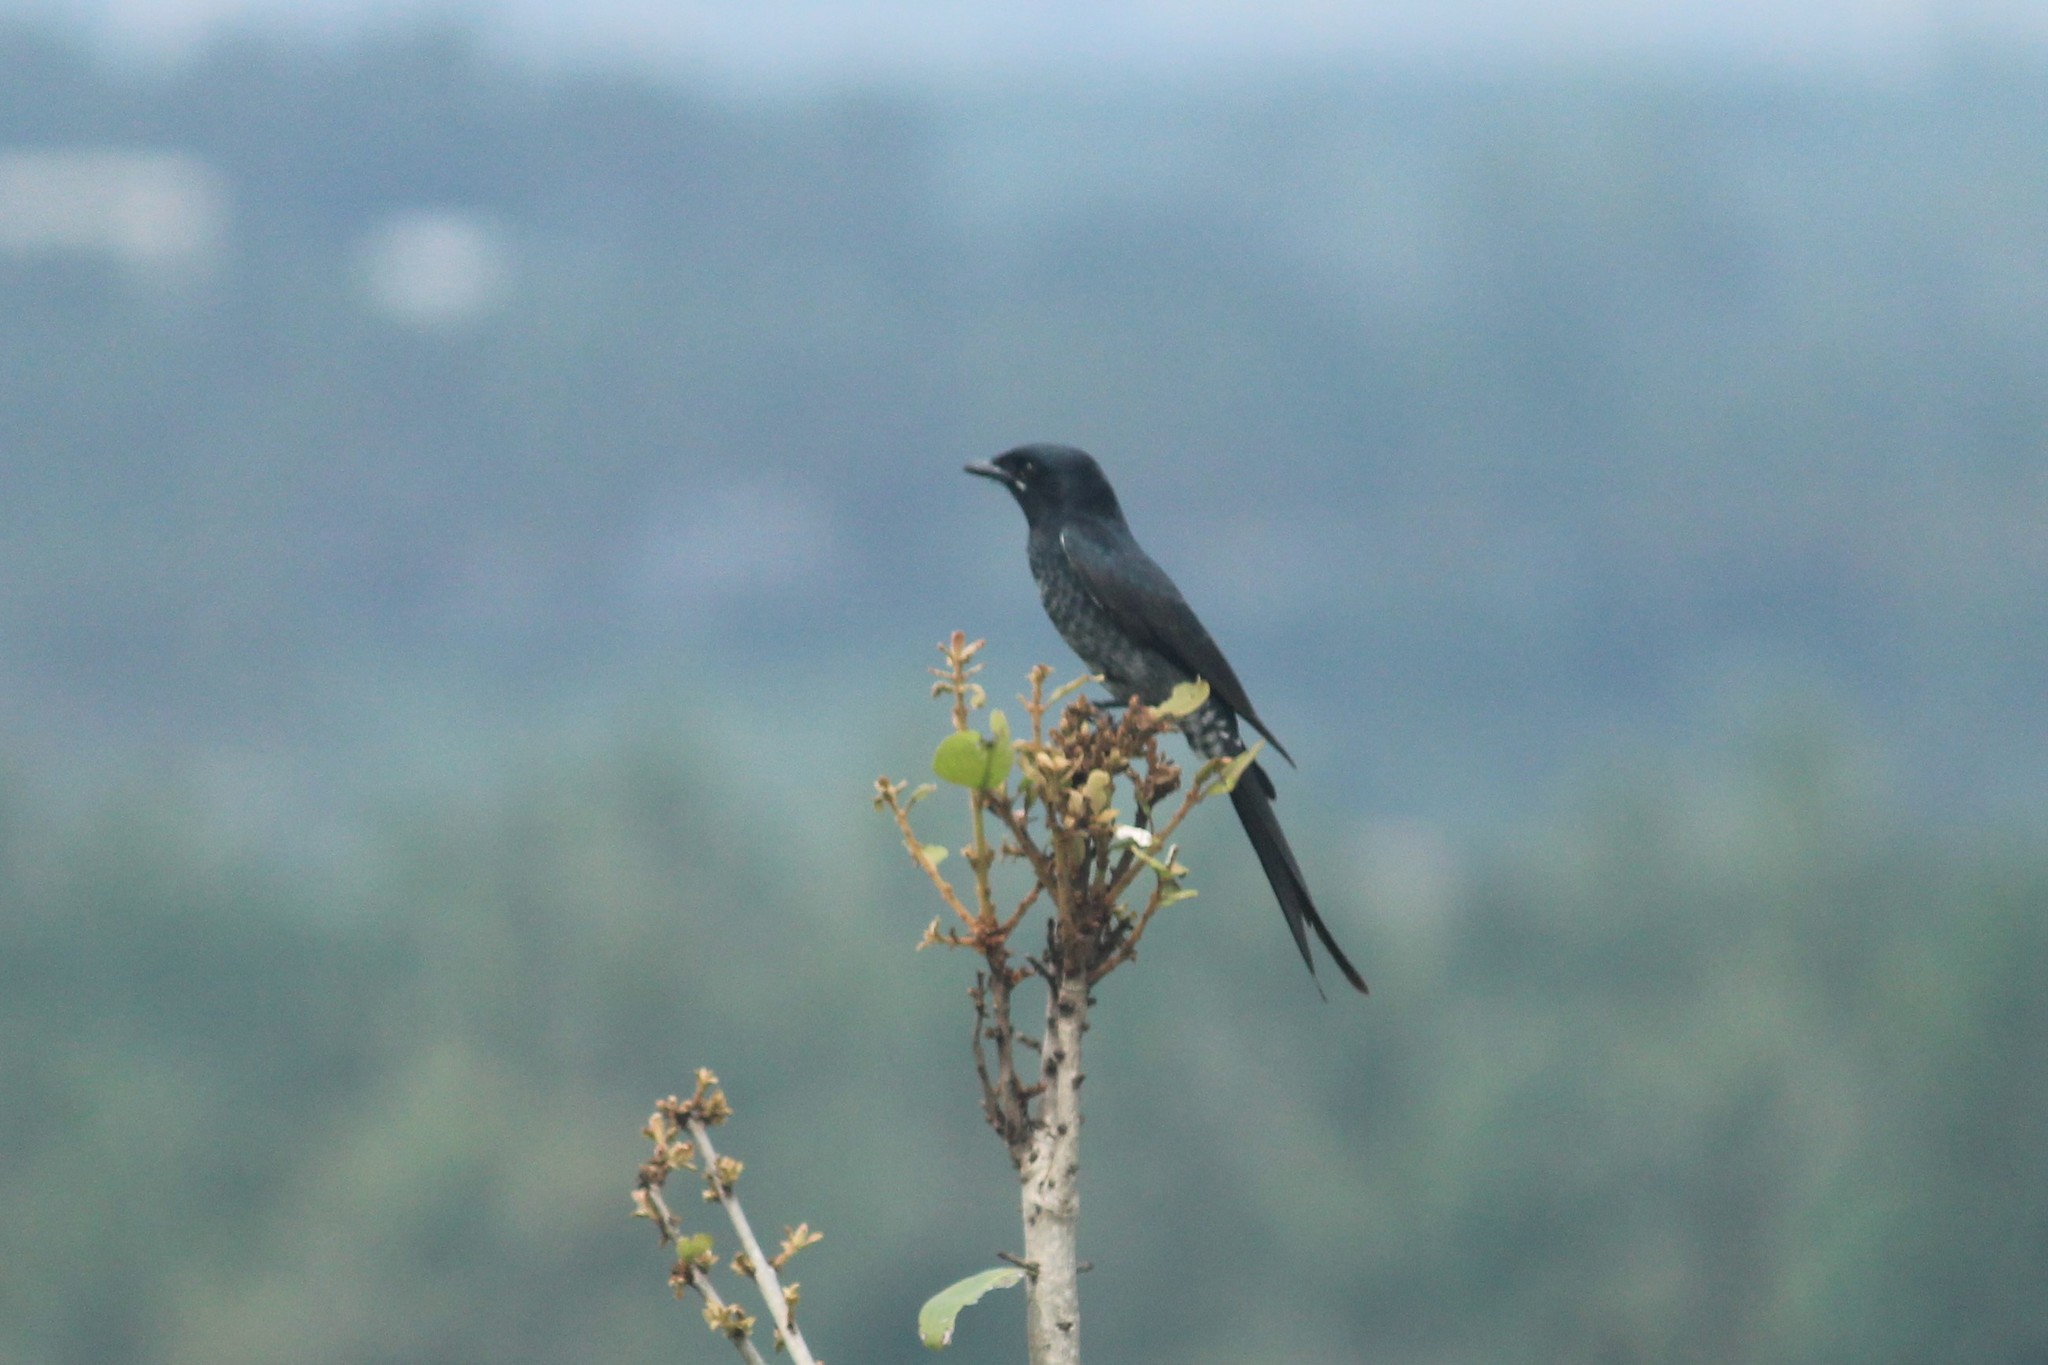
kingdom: Animalia
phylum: Chordata
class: Aves
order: Passeriformes
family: Dicruridae
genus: Dicrurus
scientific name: Dicrurus macrocercus
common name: Black drongo
